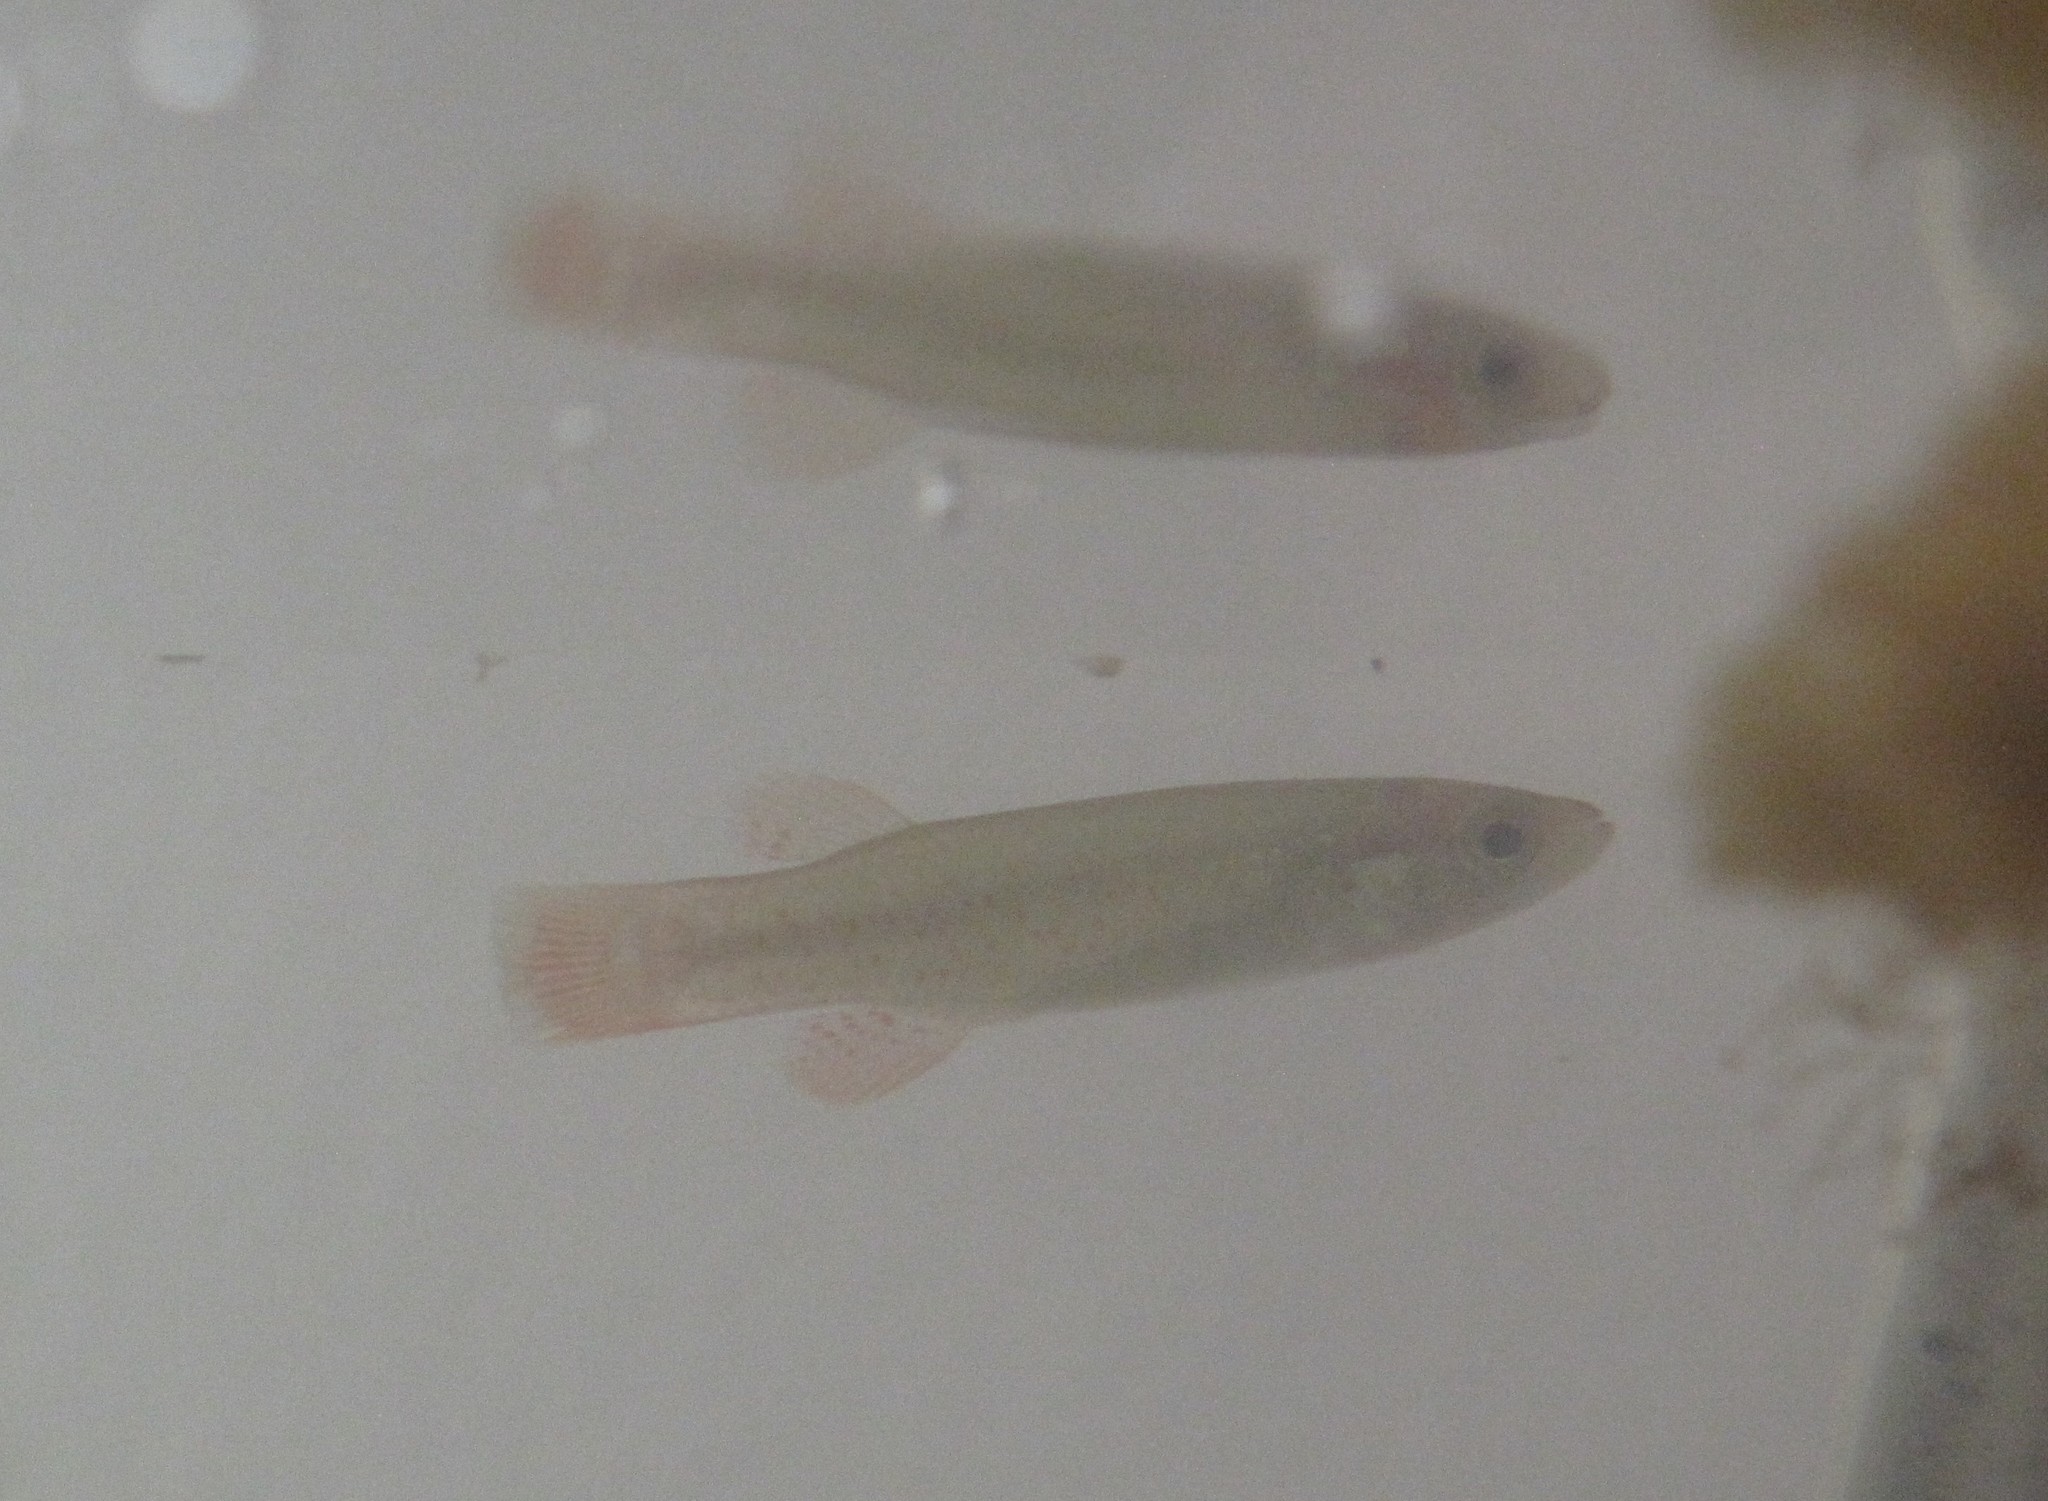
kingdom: Animalia
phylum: Chordata
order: Cyprinodontiformes
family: Fundulidae
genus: Fundulus
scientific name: Fundulus chrysotus
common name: Golden topminnow
